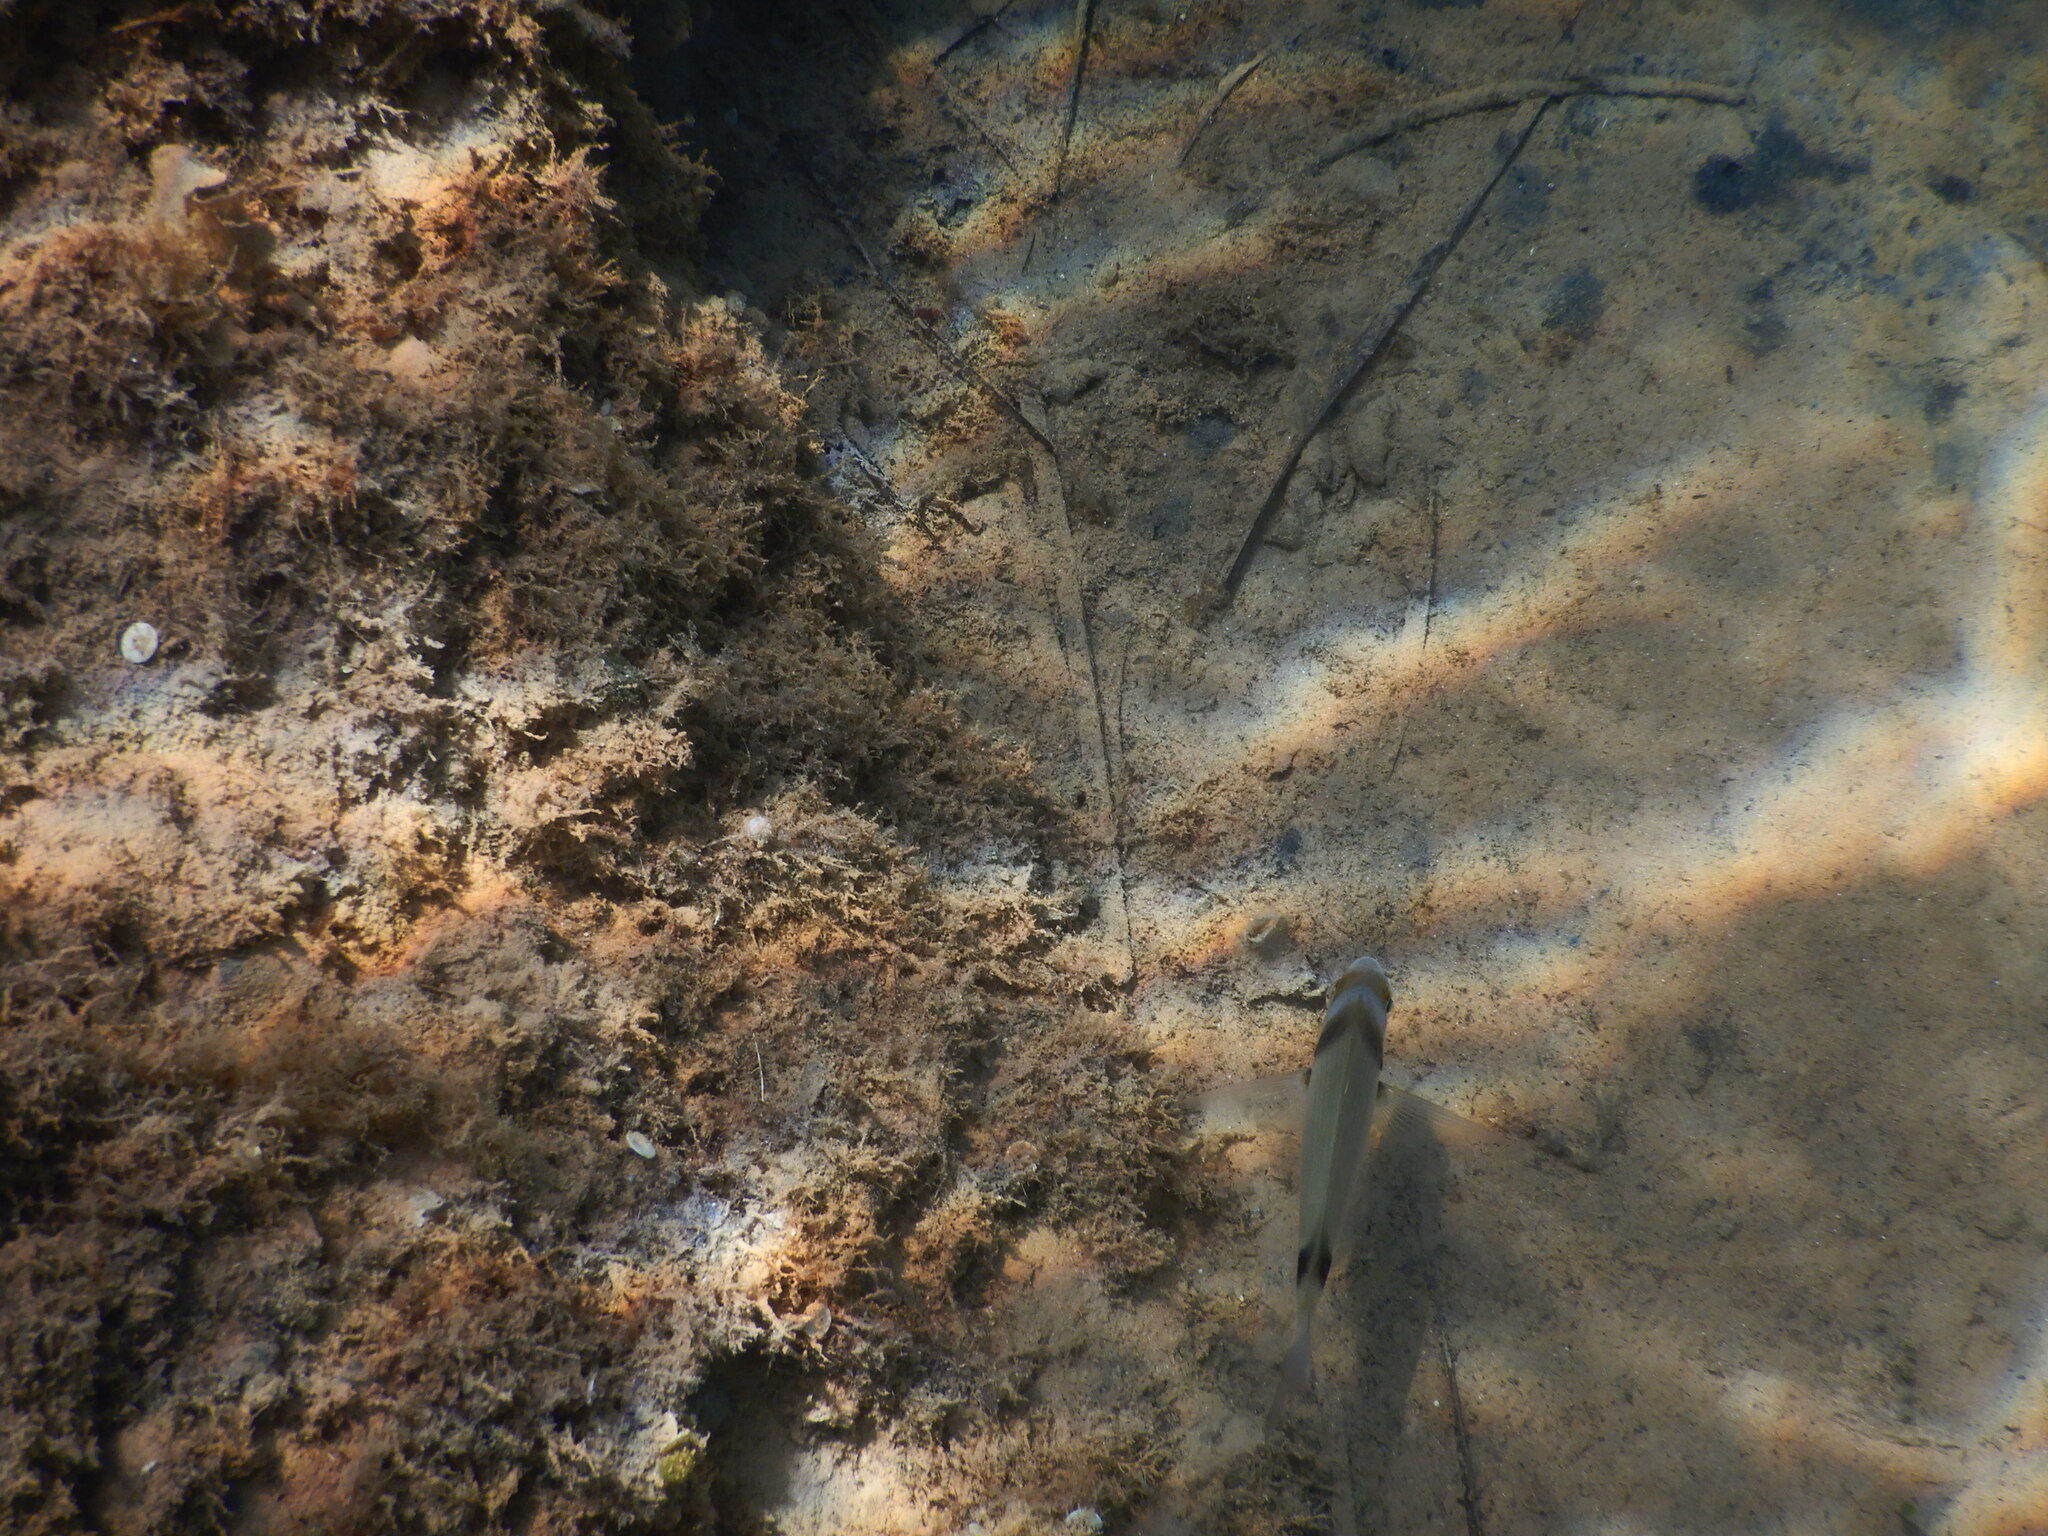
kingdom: Animalia
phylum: Chordata
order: Perciformes
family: Sparidae
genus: Diplodus
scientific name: Diplodus vulgaris
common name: Common two-banded seabream
